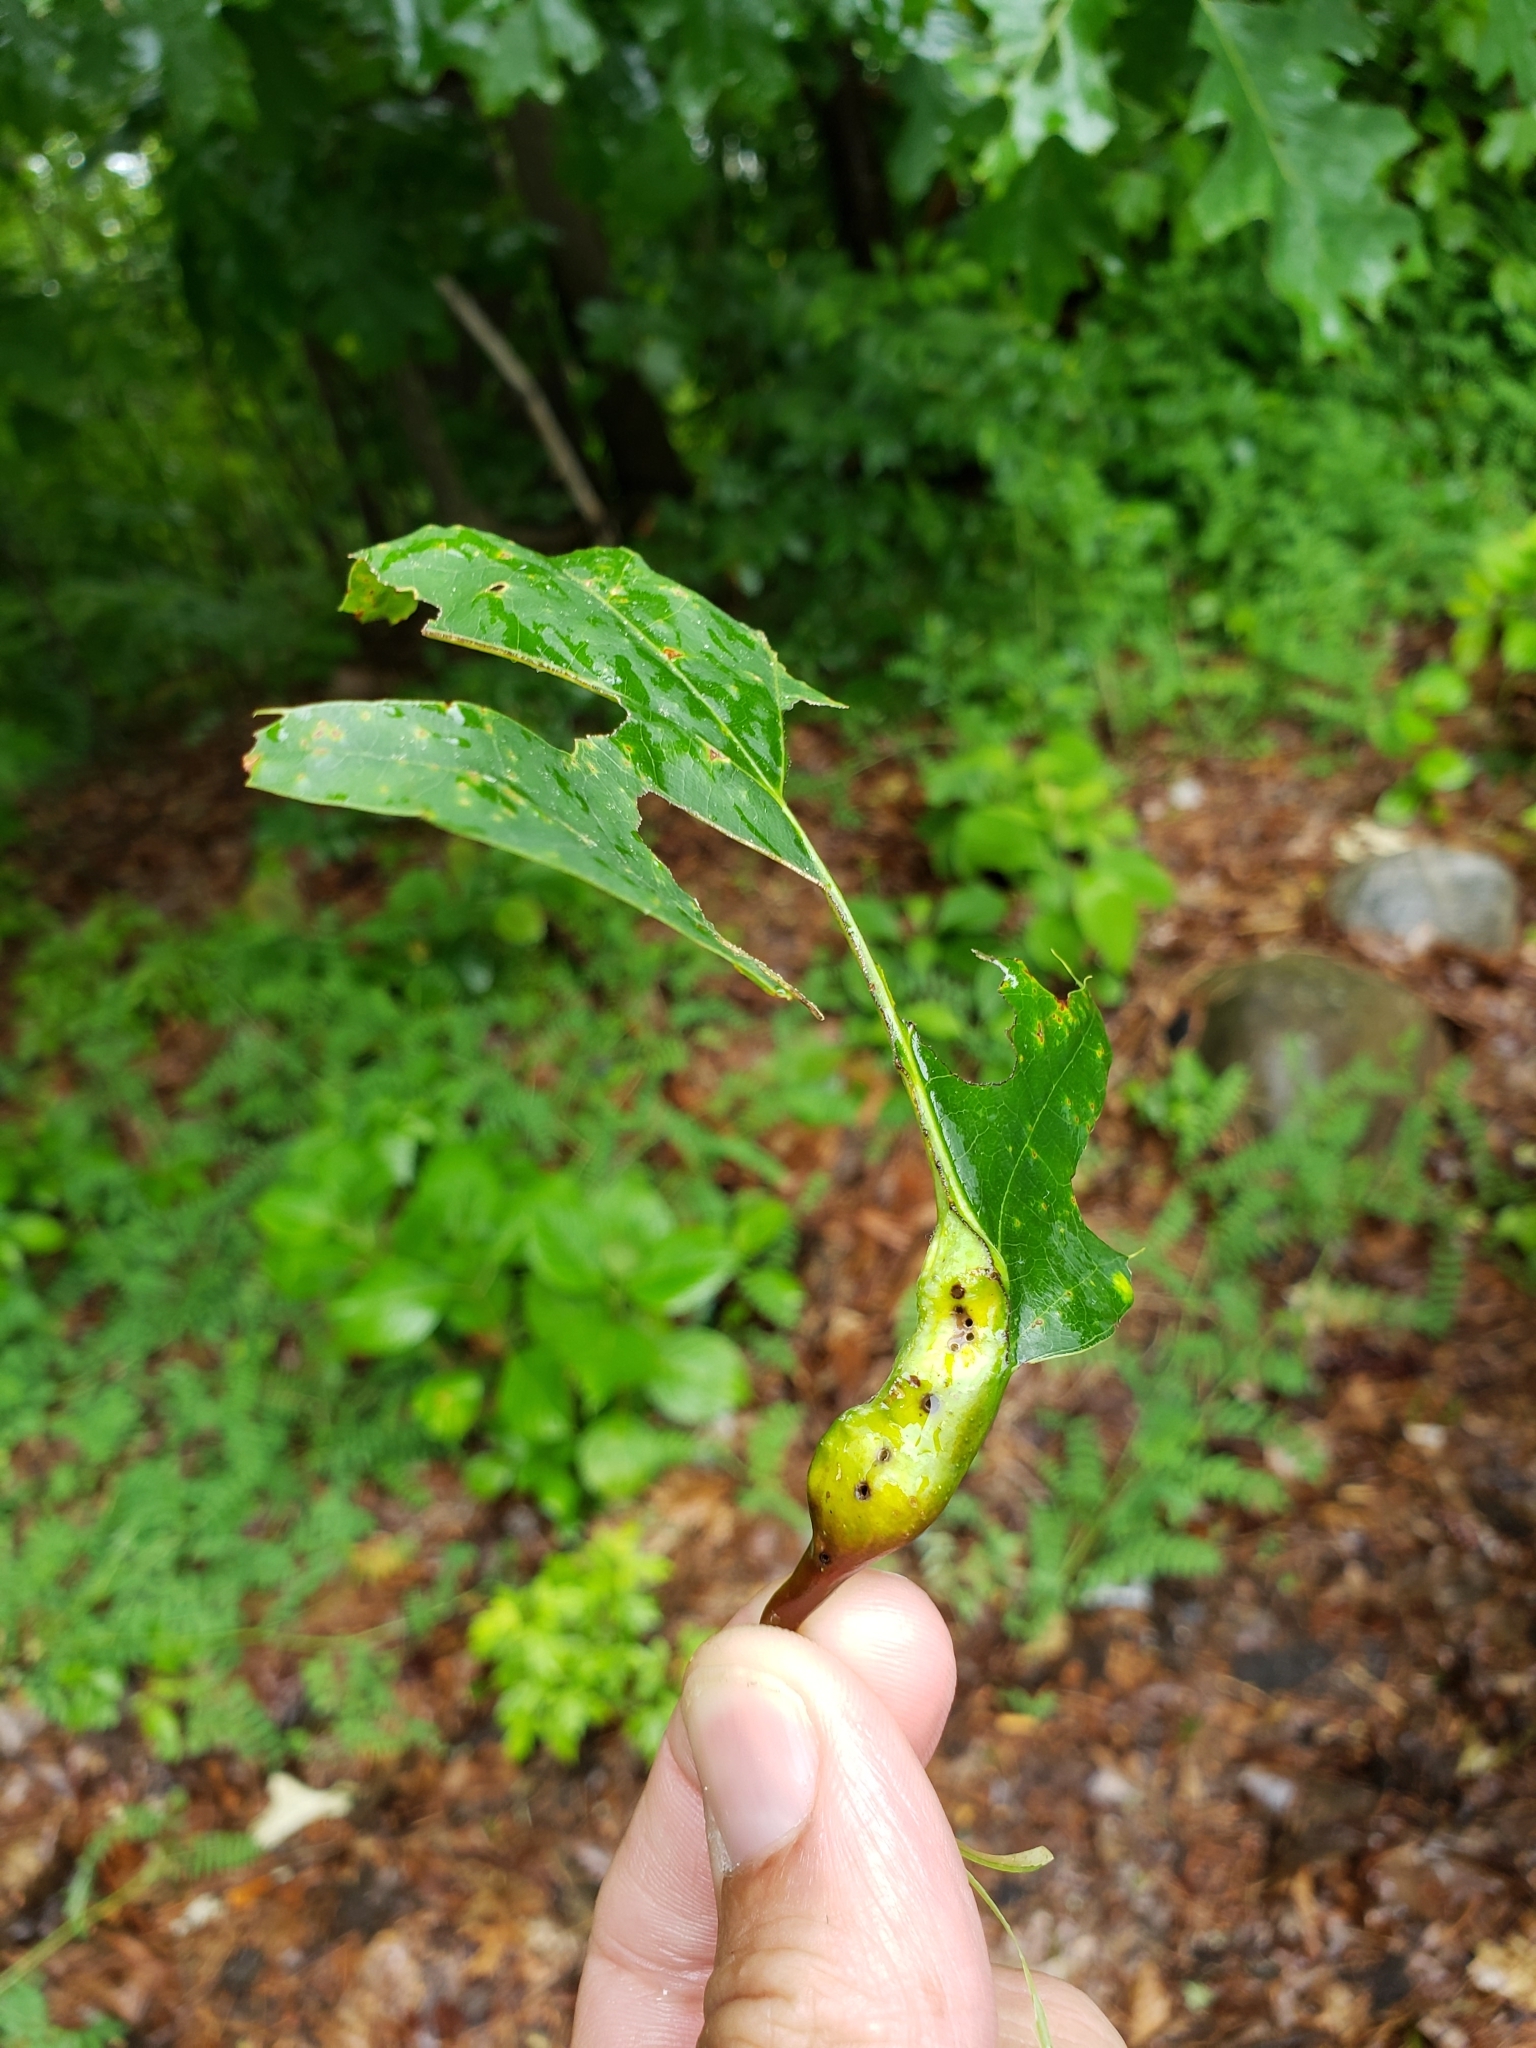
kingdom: Animalia
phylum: Arthropoda
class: Insecta
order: Hymenoptera
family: Cynipidae
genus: Melikaiella
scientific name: Melikaiella tumifica
